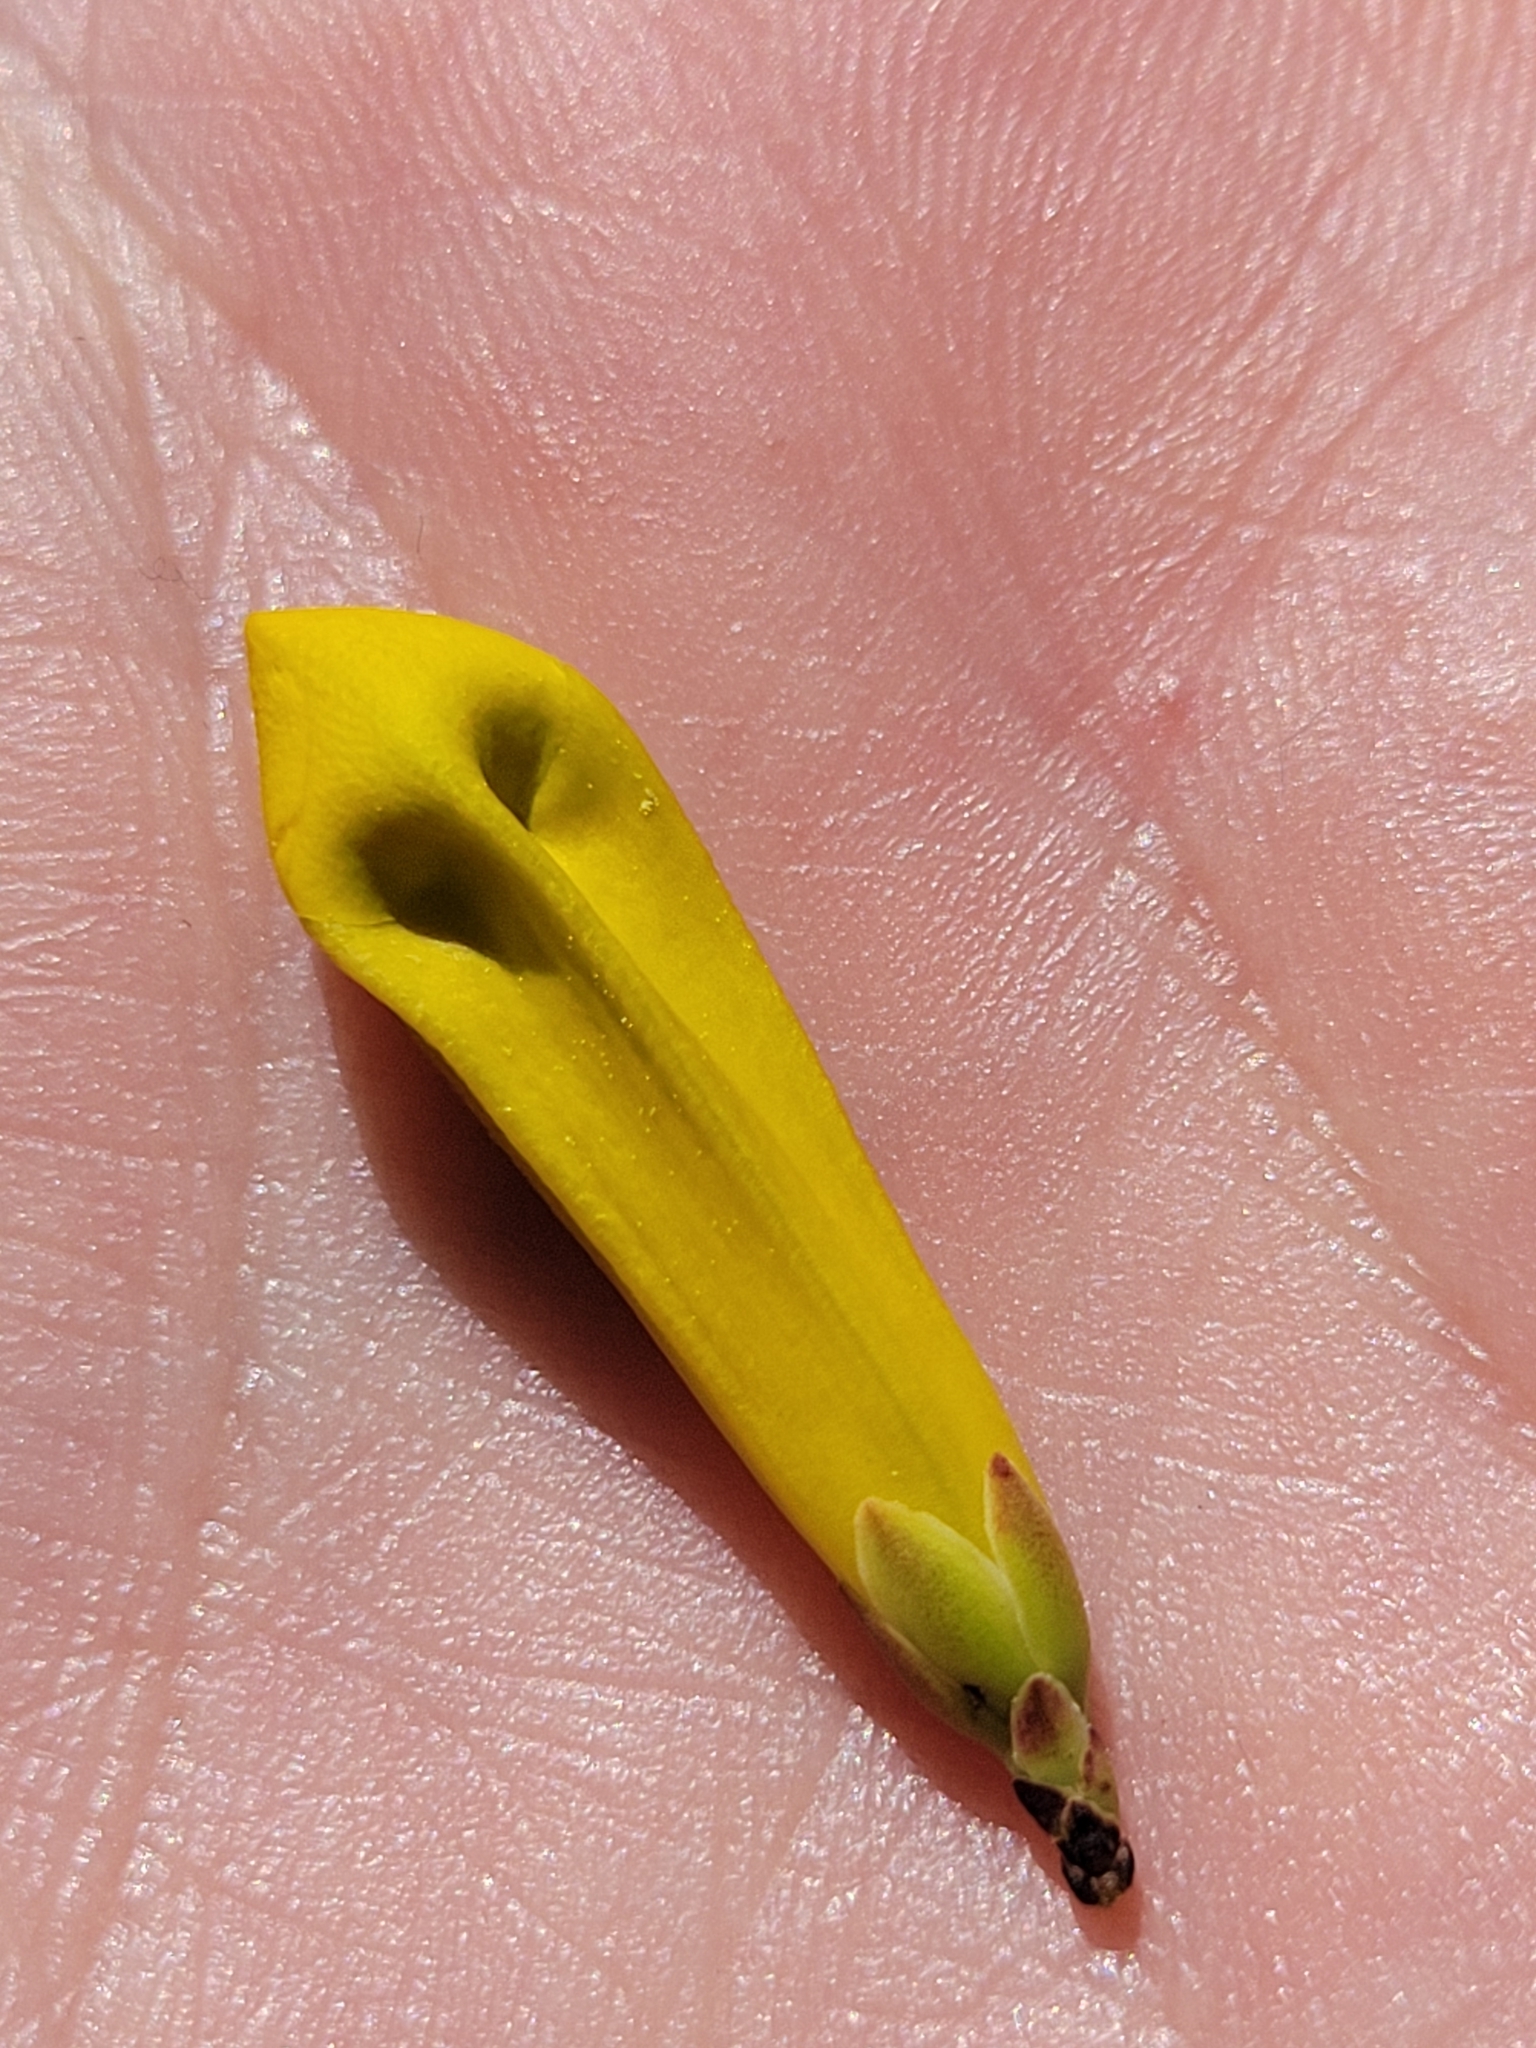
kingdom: Plantae
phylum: Tracheophyta
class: Magnoliopsida
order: Gentianales
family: Gelsemiaceae
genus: Gelsemium
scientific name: Gelsemium sempervirens
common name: Carolina-jasmine
